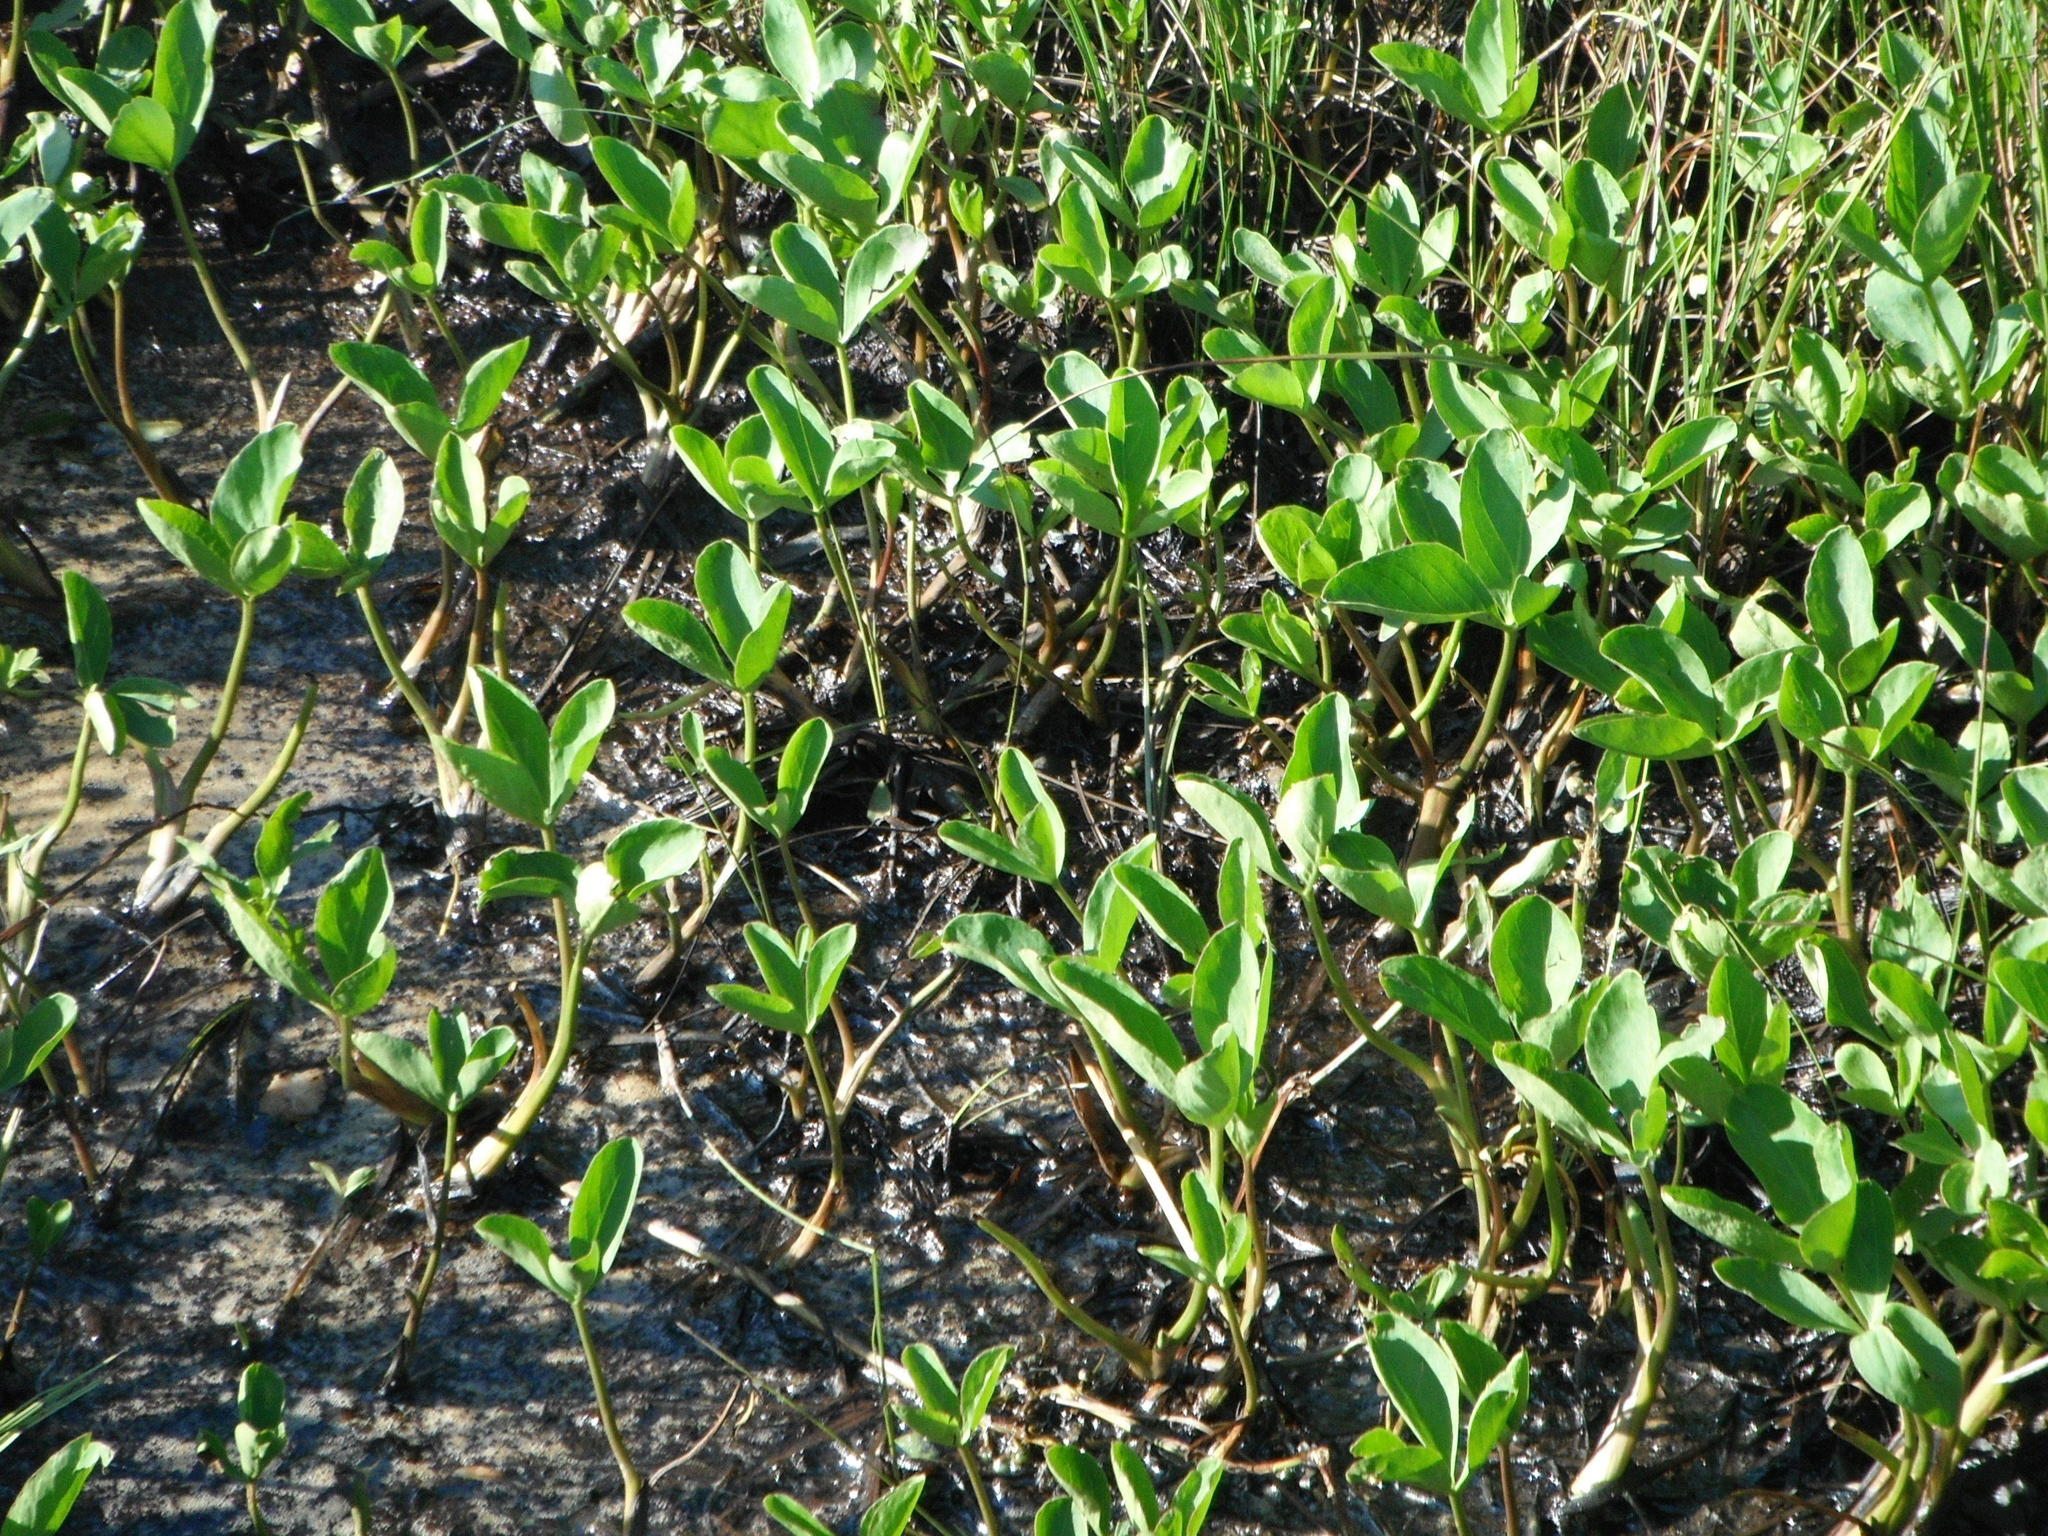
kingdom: Plantae
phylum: Tracheophyta
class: Magnoliopsida
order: Asterales
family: Menyanthaceae
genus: Menyanthes
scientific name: Menyanthes trifoliata
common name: Bogbean
